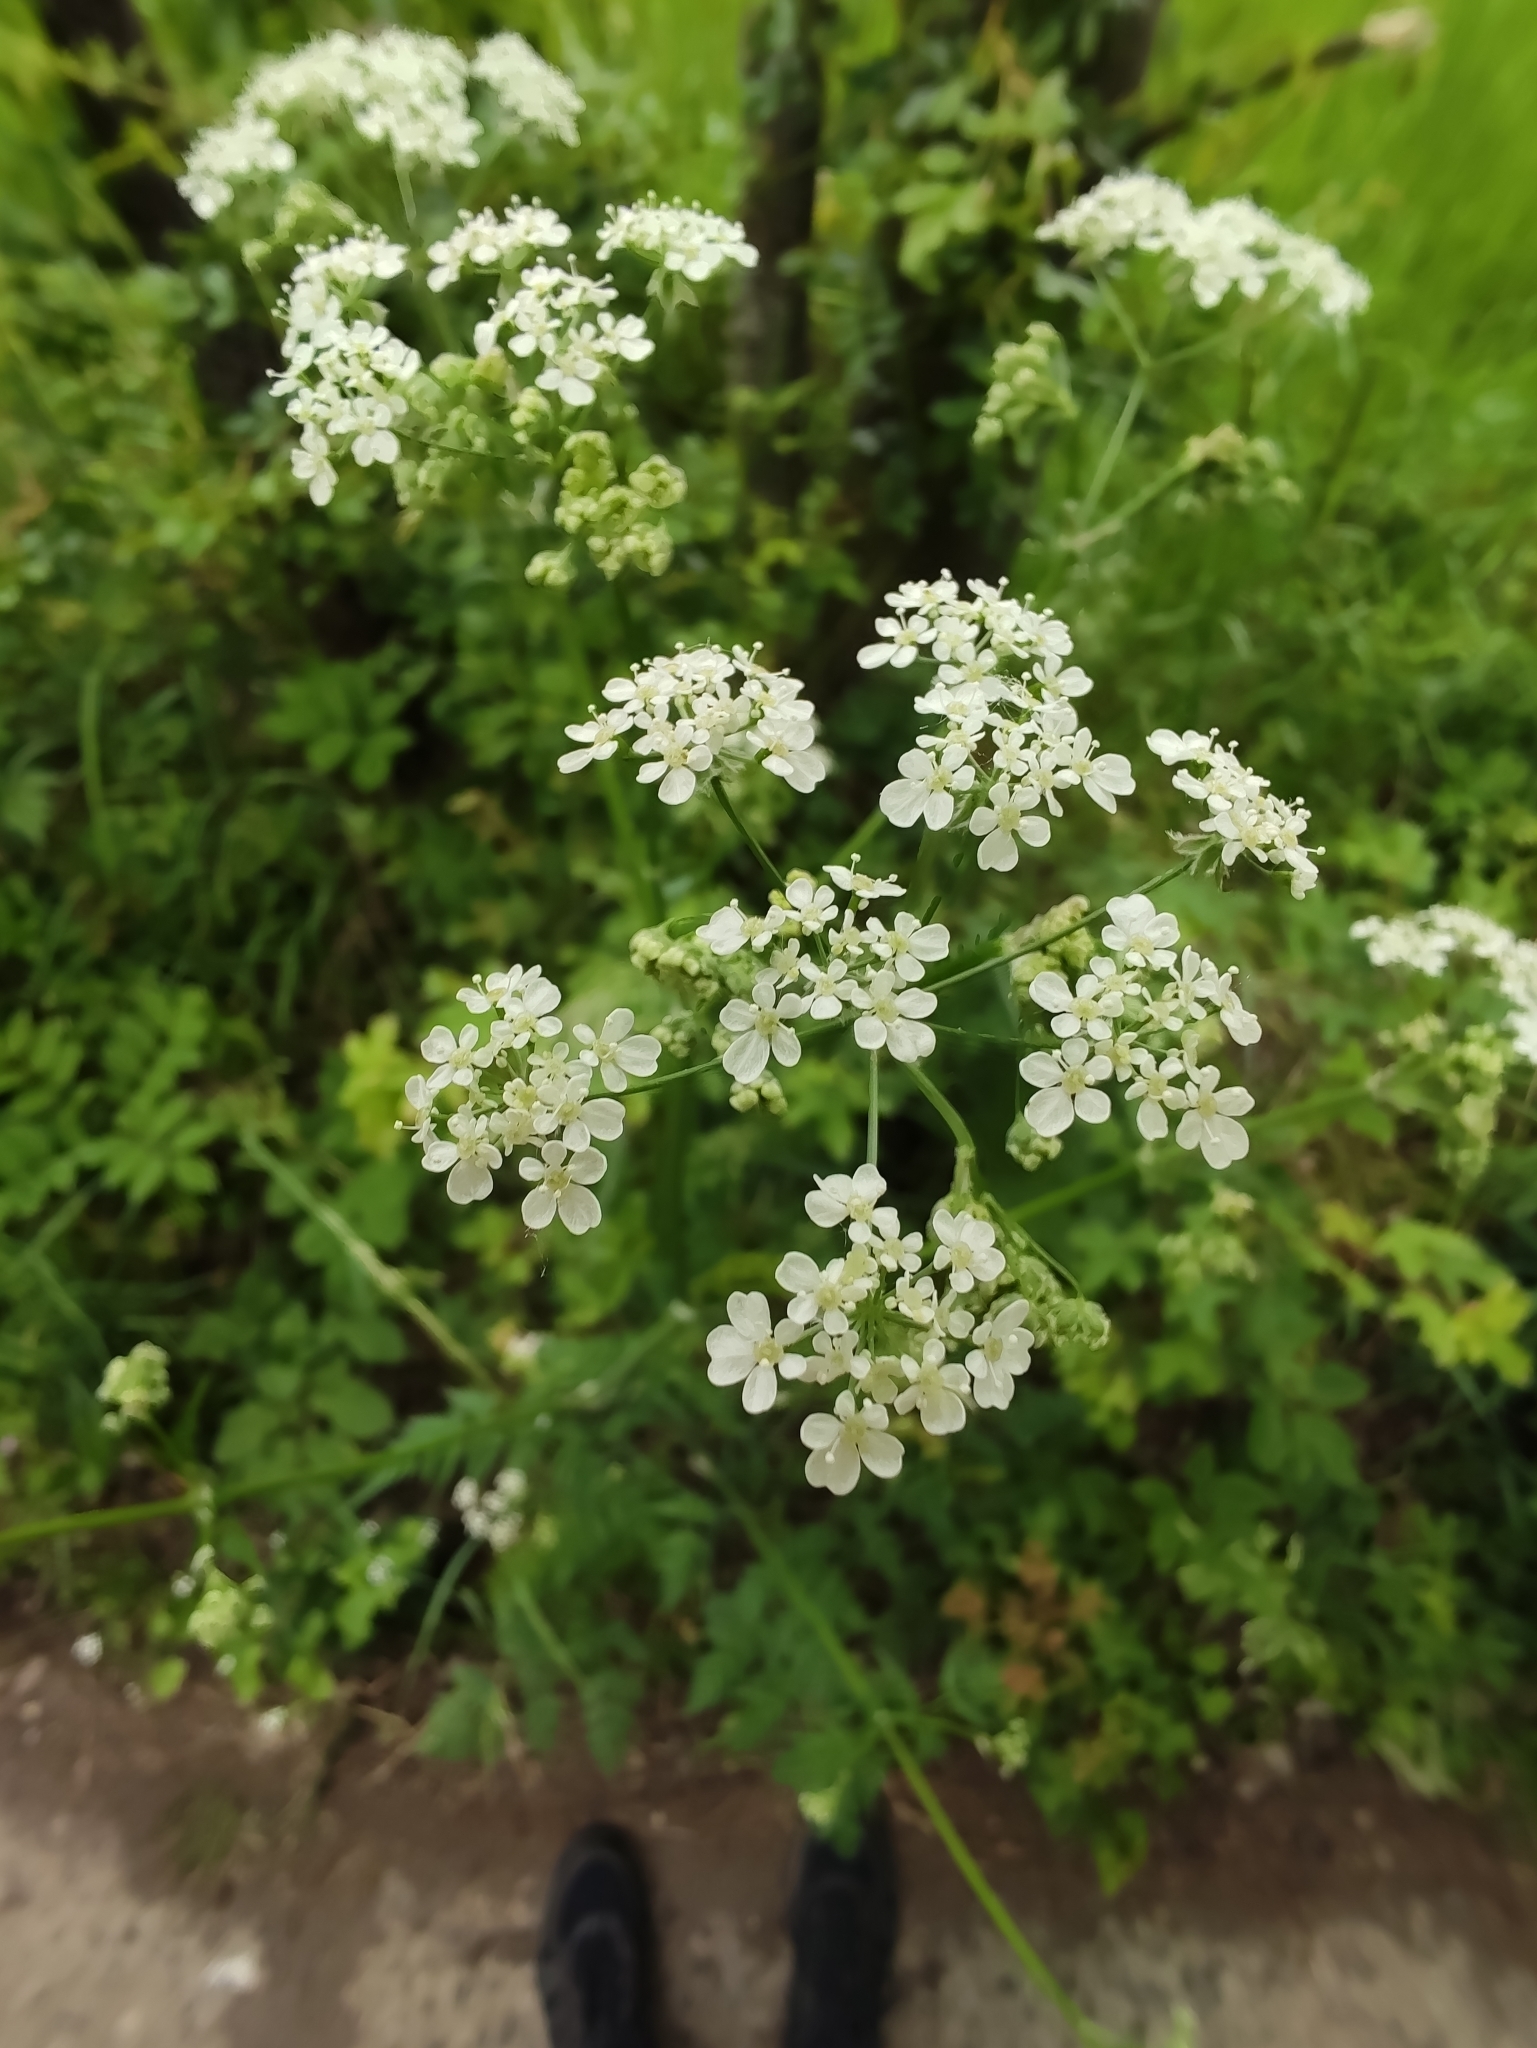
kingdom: Plantae
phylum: Tracheophyta
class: Magnoliopsida
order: Apiales
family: Apiaceae
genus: Anthriscus
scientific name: Anthriscus sylvestris
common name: Cow parsley
